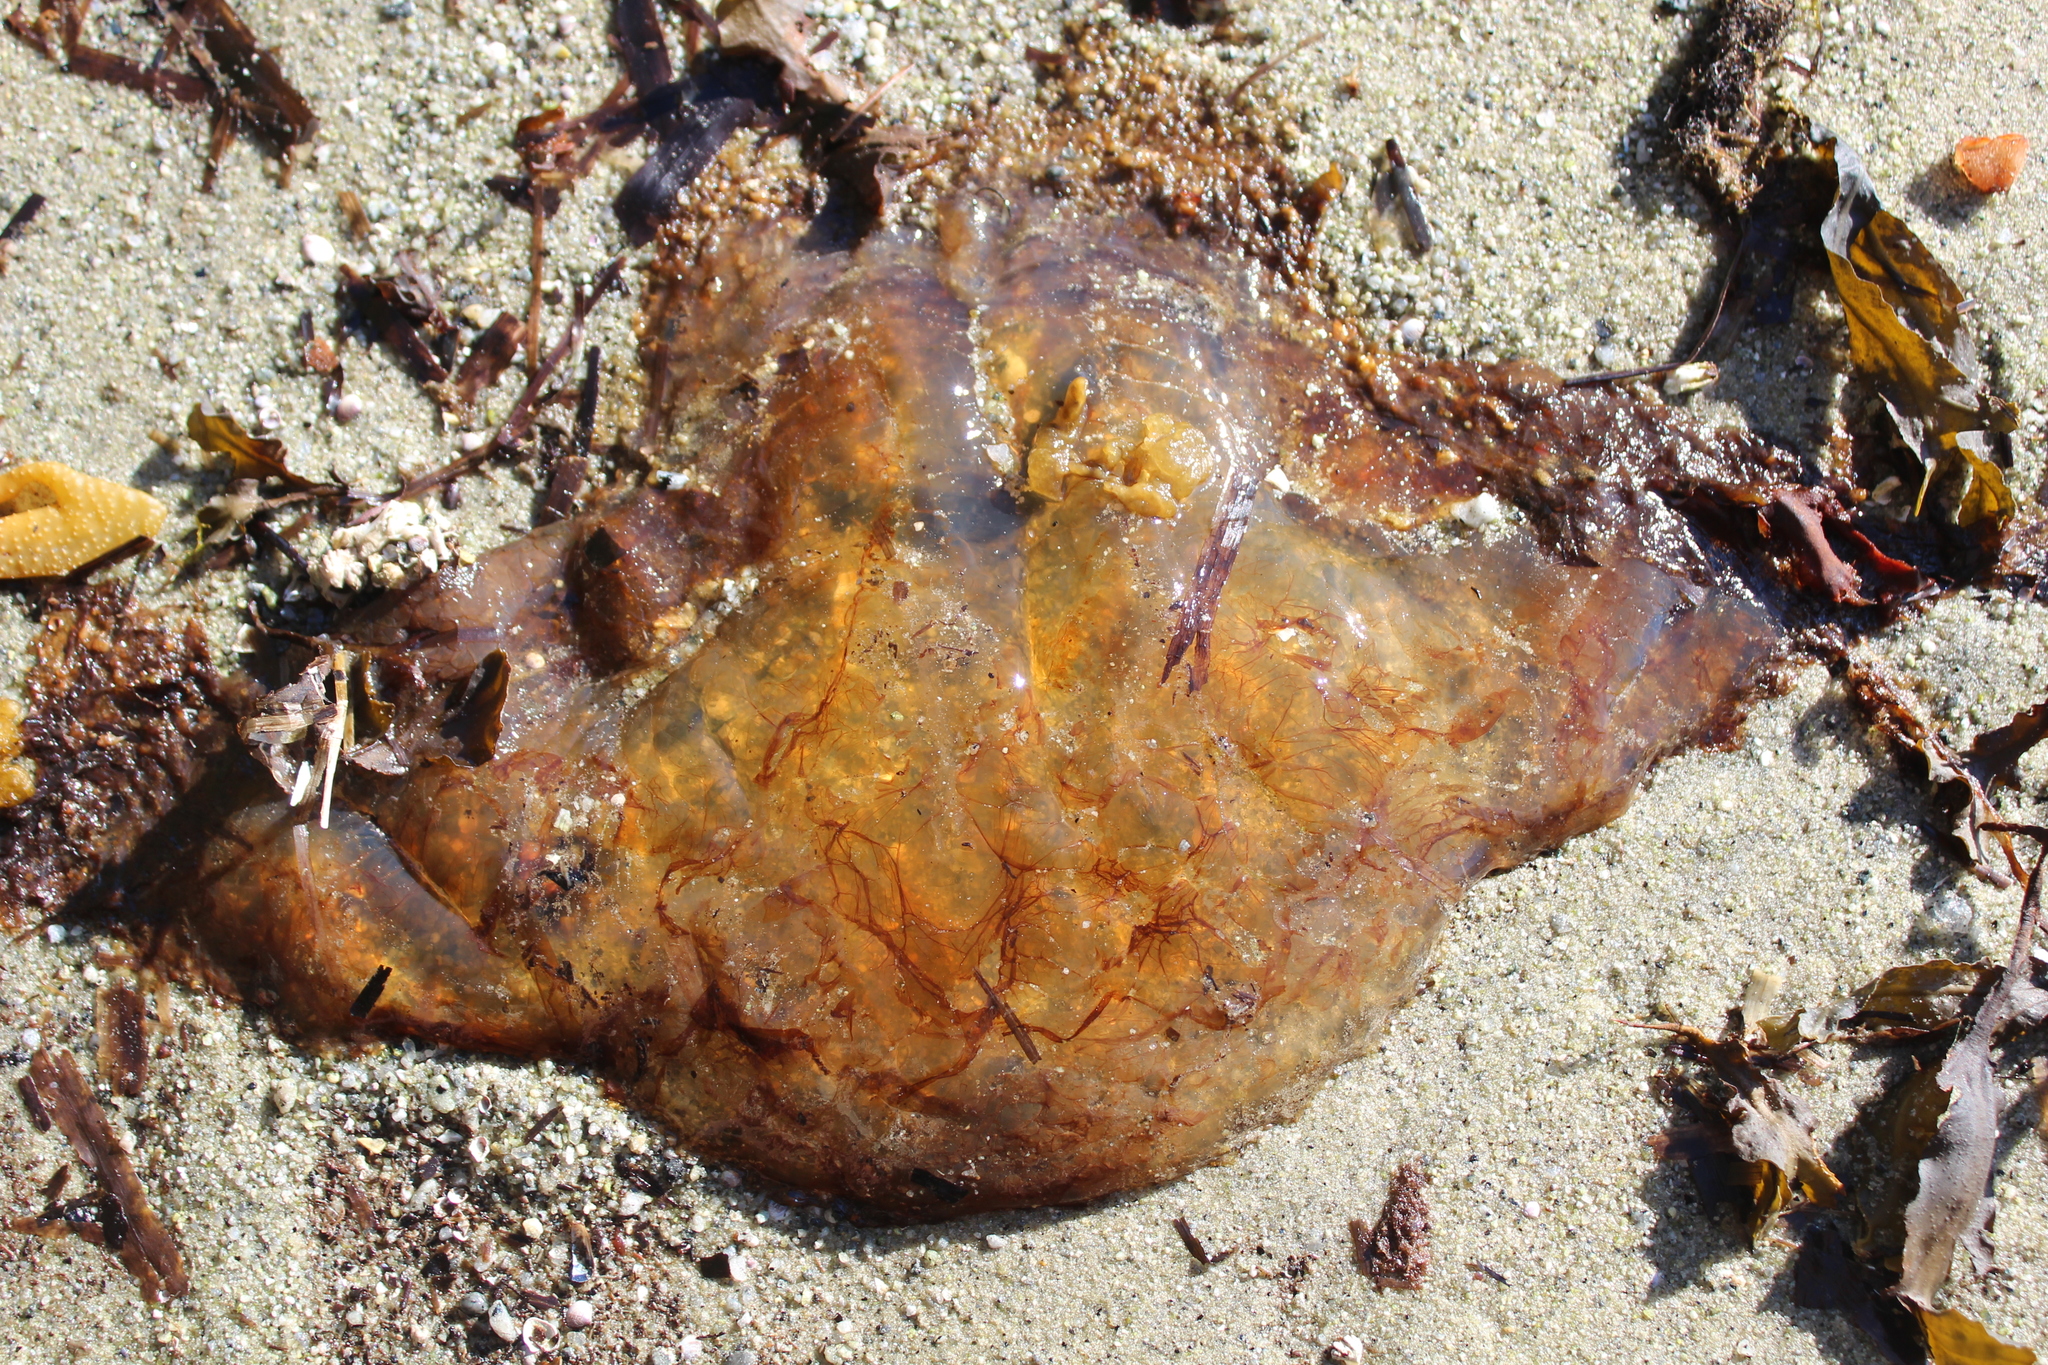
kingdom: Animalia
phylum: Cnidaria
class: Scyphozoa
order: Semaeostomeae
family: Cyaneidae
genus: Cyanea
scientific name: Cyanea ferruginea
